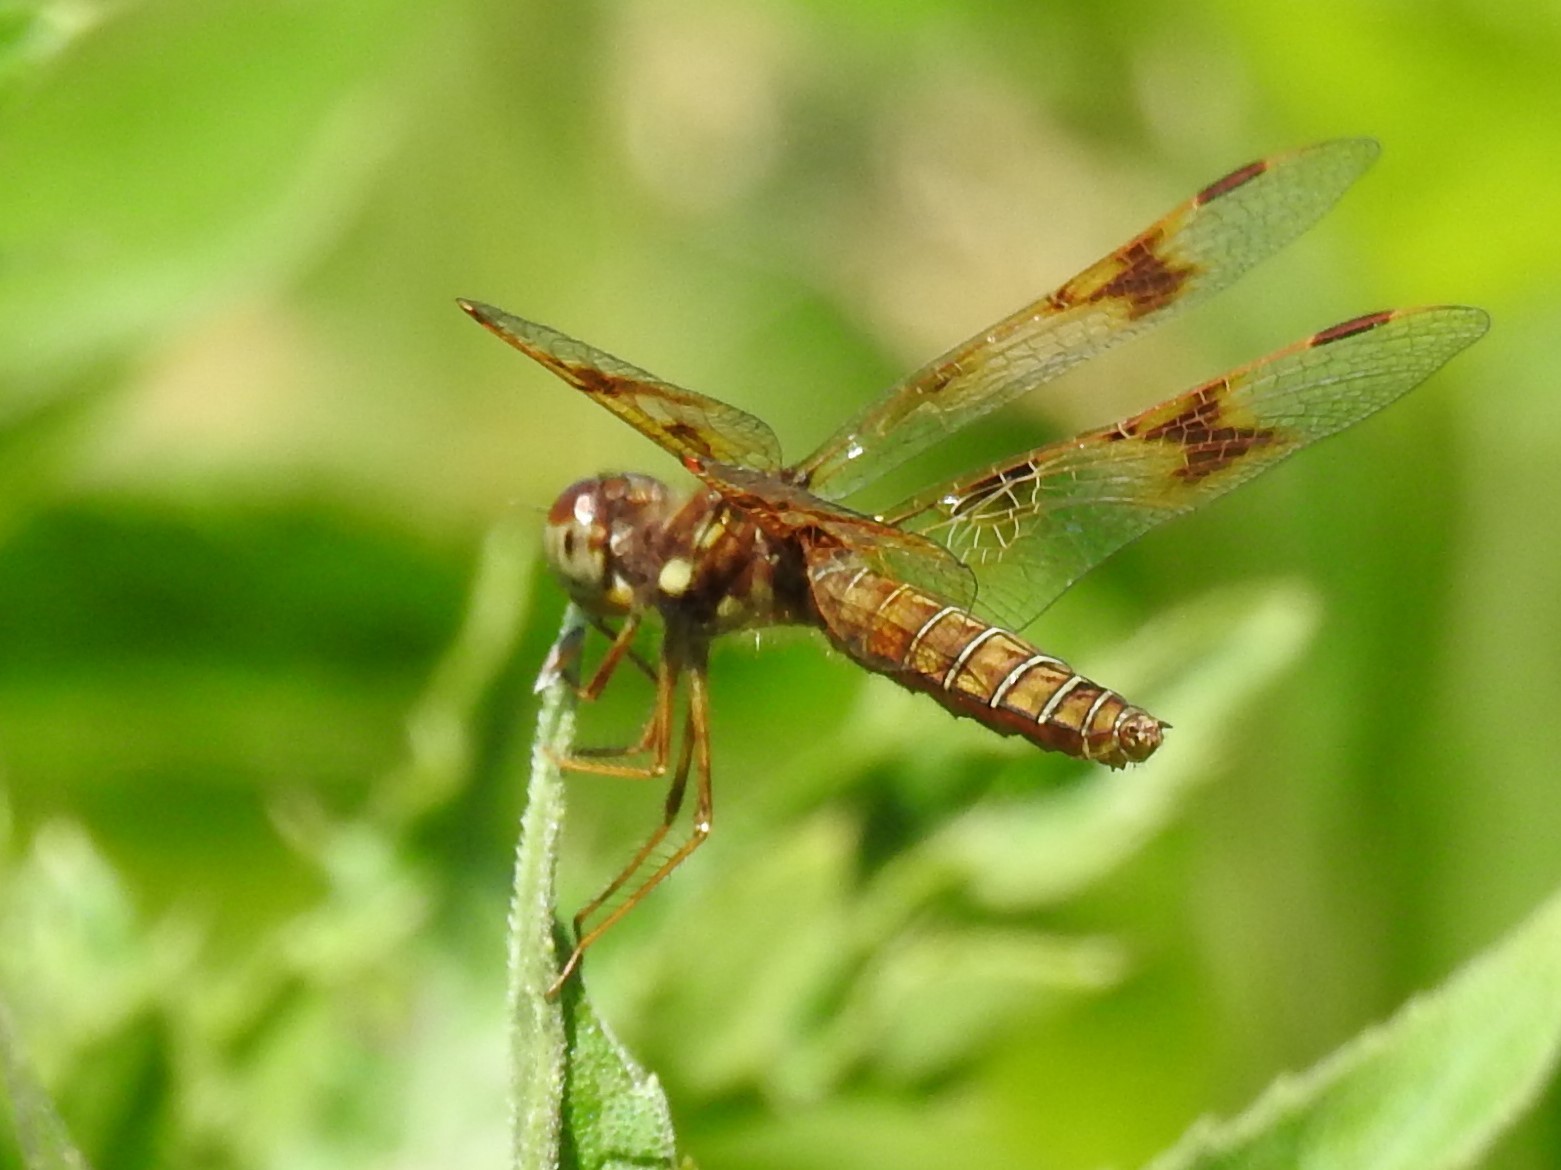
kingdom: Animalia
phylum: Arthropoda
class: Insecta
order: Odonata
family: Libellulidae
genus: Perithemis
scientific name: Perithemis tenera
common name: Eastern amberwing
